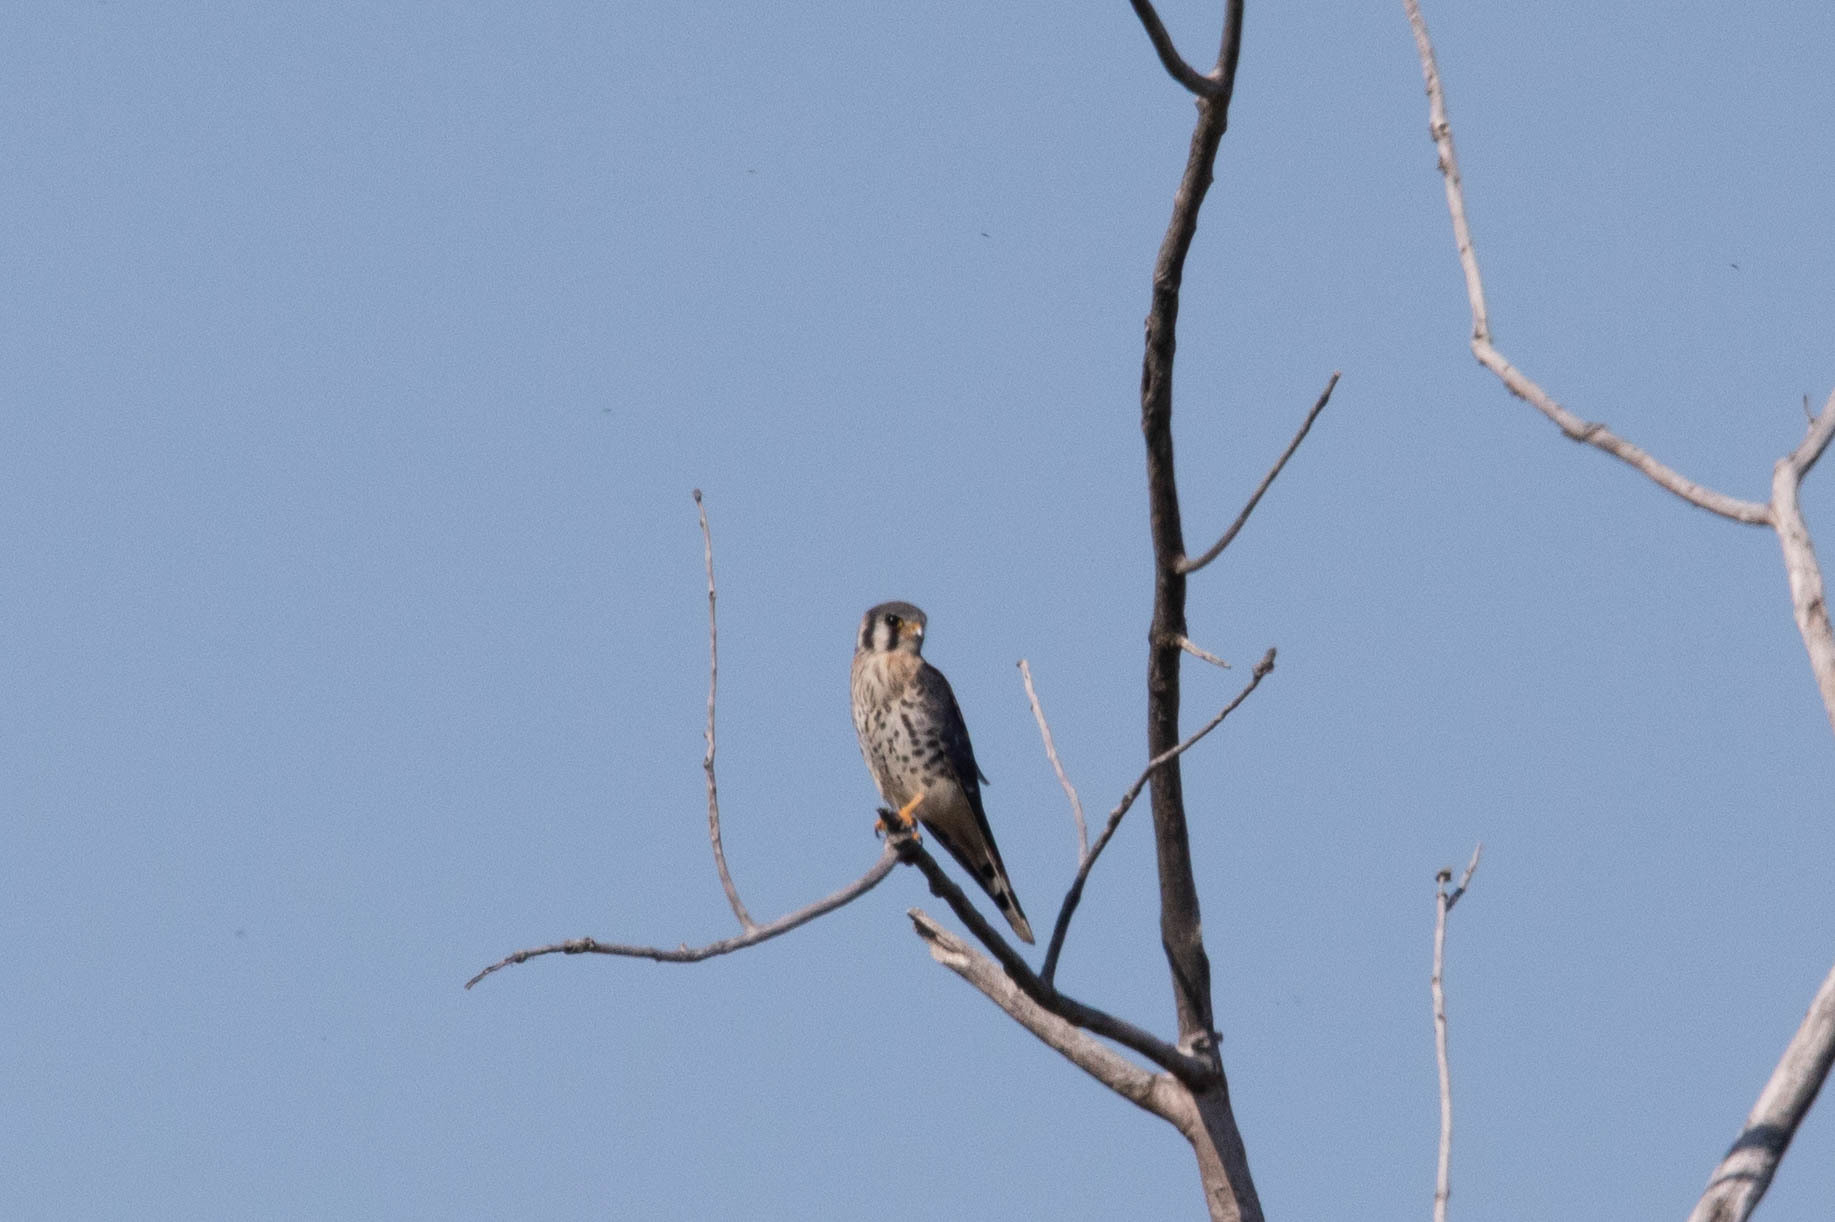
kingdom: Animalia
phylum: Chordata
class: Aves
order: Falconiformes
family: Falconidae
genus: Falco
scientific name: Falco sparverius
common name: American kestrel
